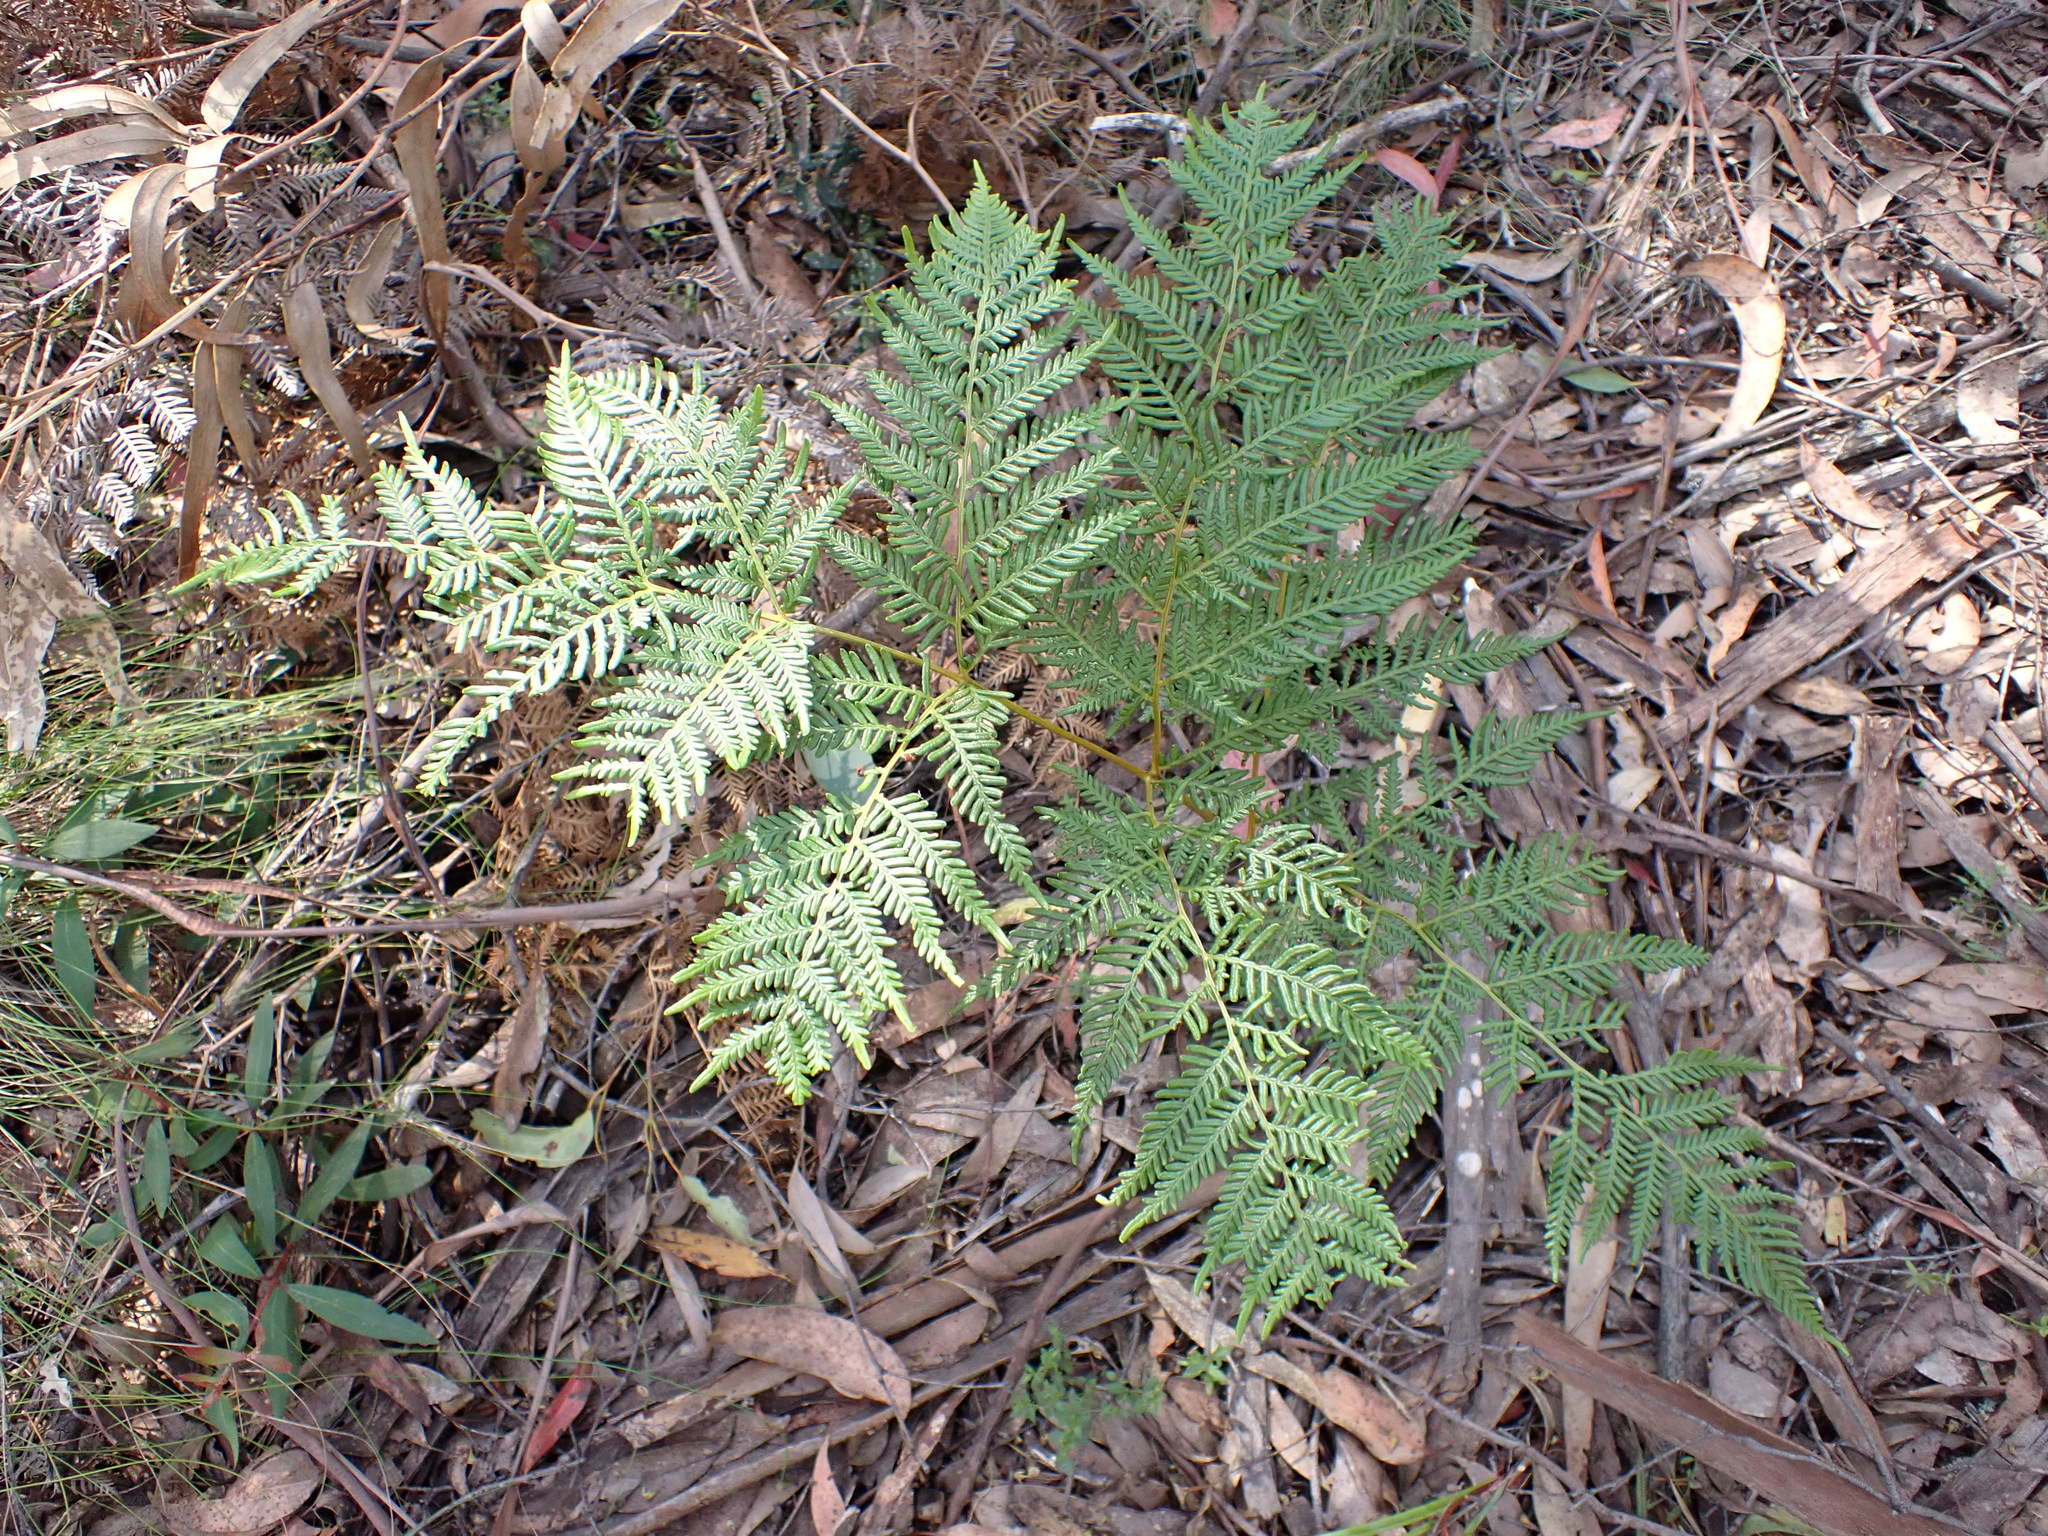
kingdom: Plantae
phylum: Tracheophyta
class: Polypodiopsida
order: Polypodiales
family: Dennstaedtiaceae
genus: Pteridium
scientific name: Pteridium esculentum
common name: Bracken fern
